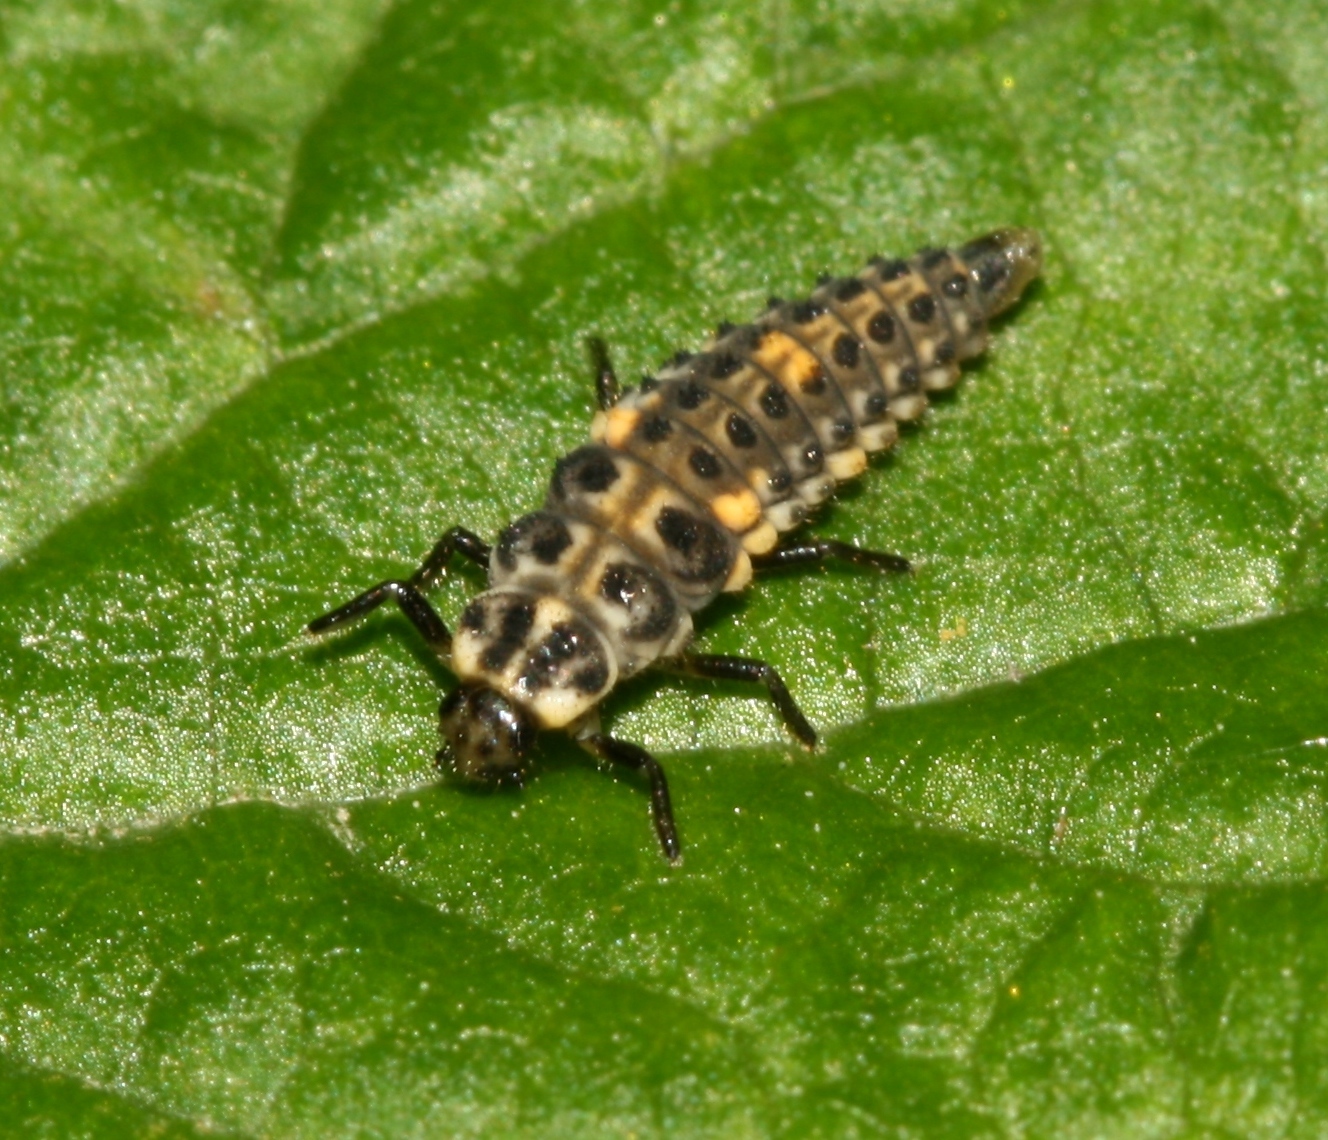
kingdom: Animalia
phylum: Arthropoda
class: Insecta
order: Coleoptera
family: Coccinellidae
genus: Adalia
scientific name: Adalia decempunctata
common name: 10-spot ladybird
